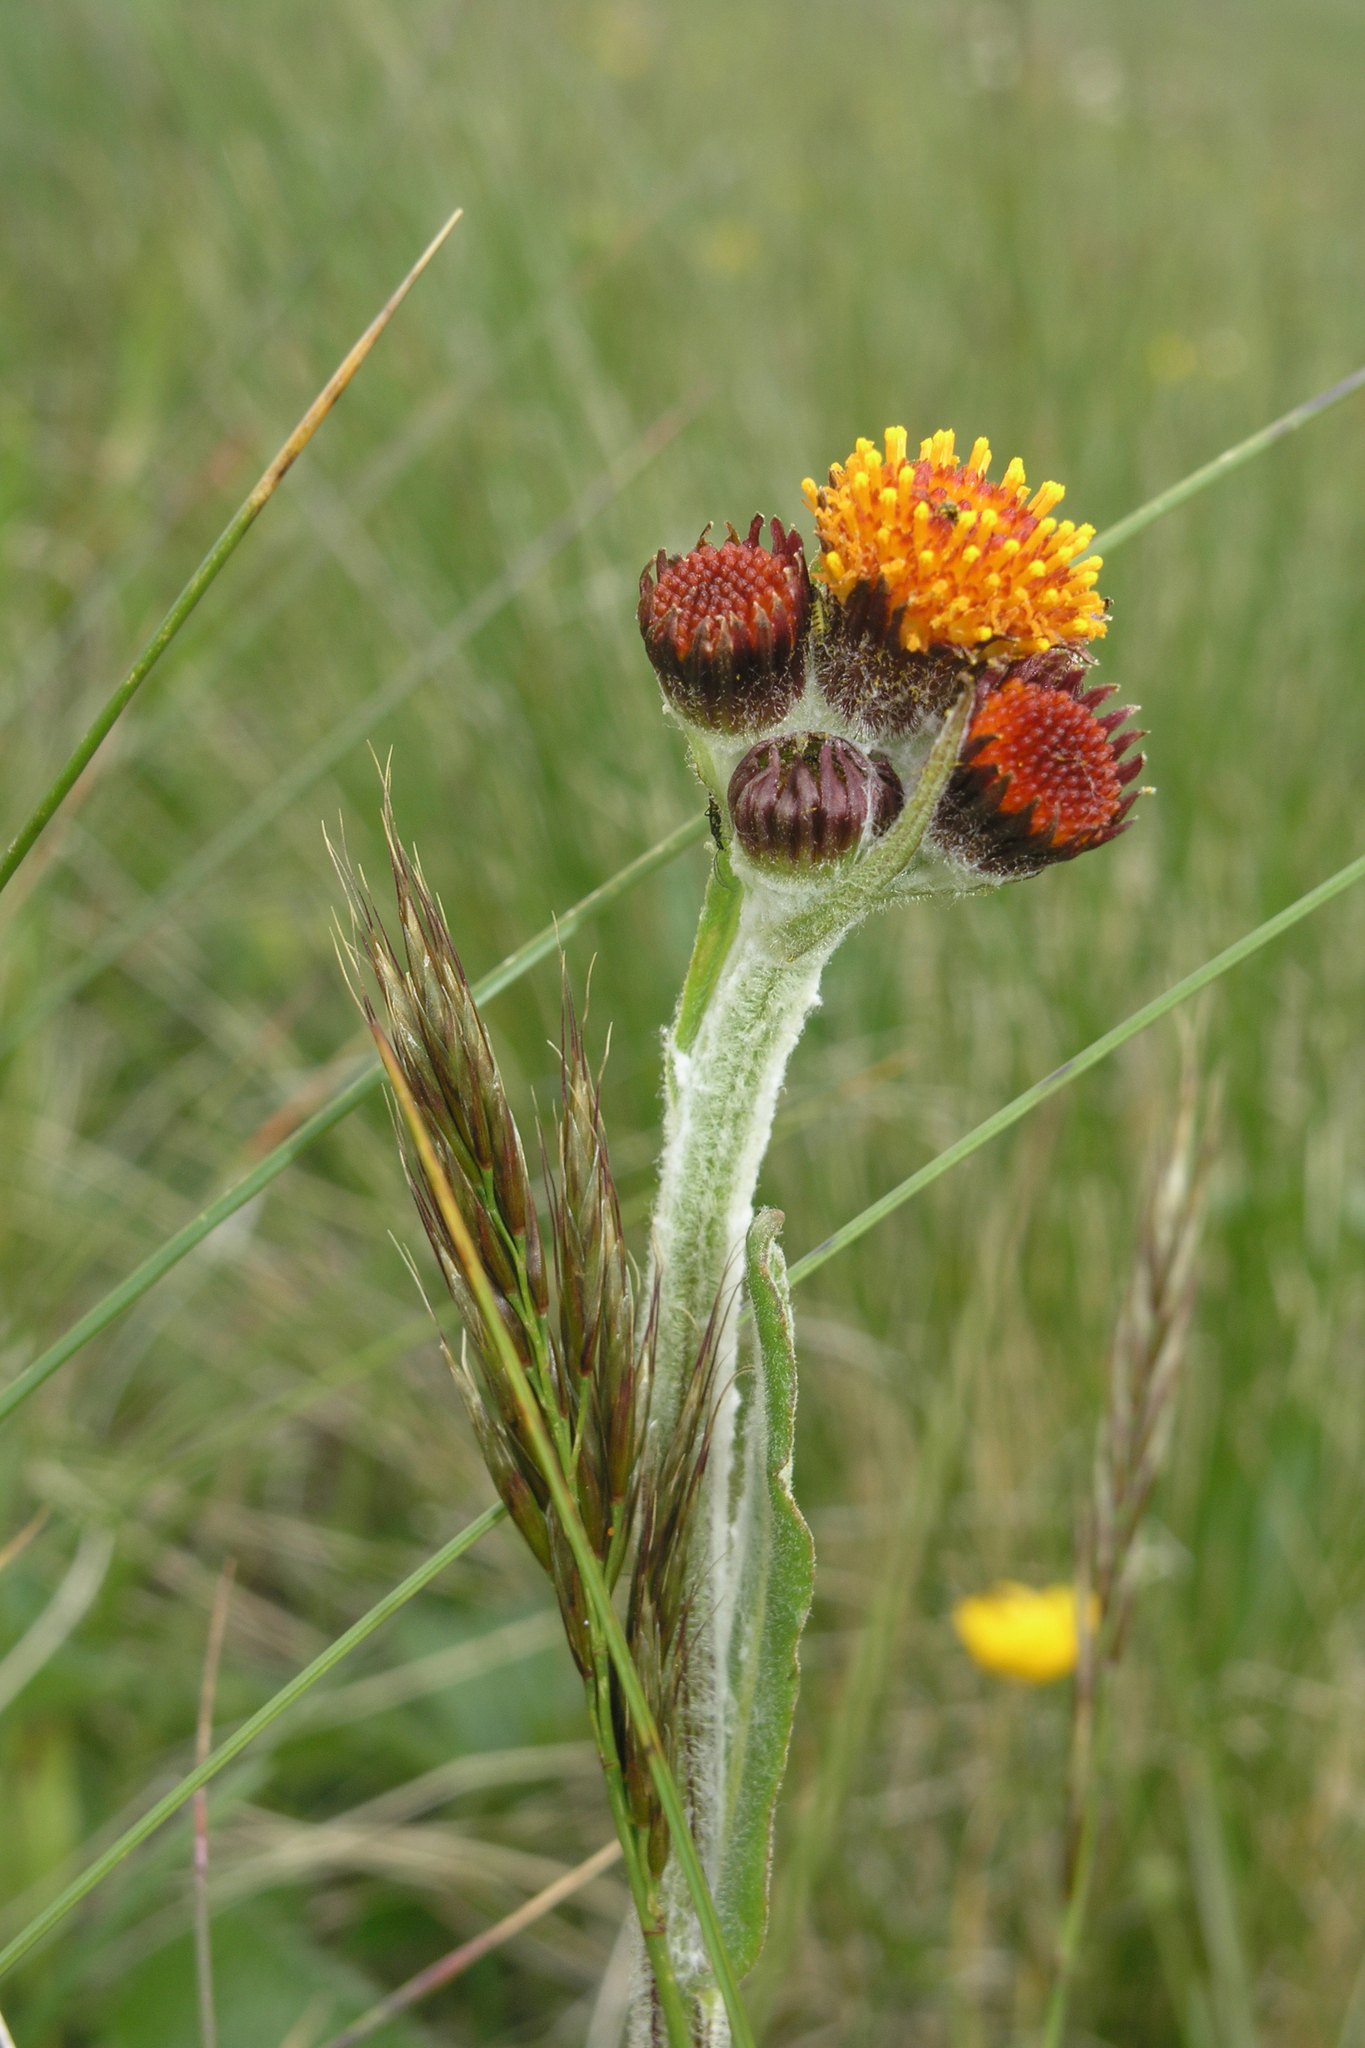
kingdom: Plantae
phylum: Tracheophyta
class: Magnoliopsida
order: Asterales
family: Asteraceae
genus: Tephroseris
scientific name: Tephroseris integrifolia
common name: Field fleawort
